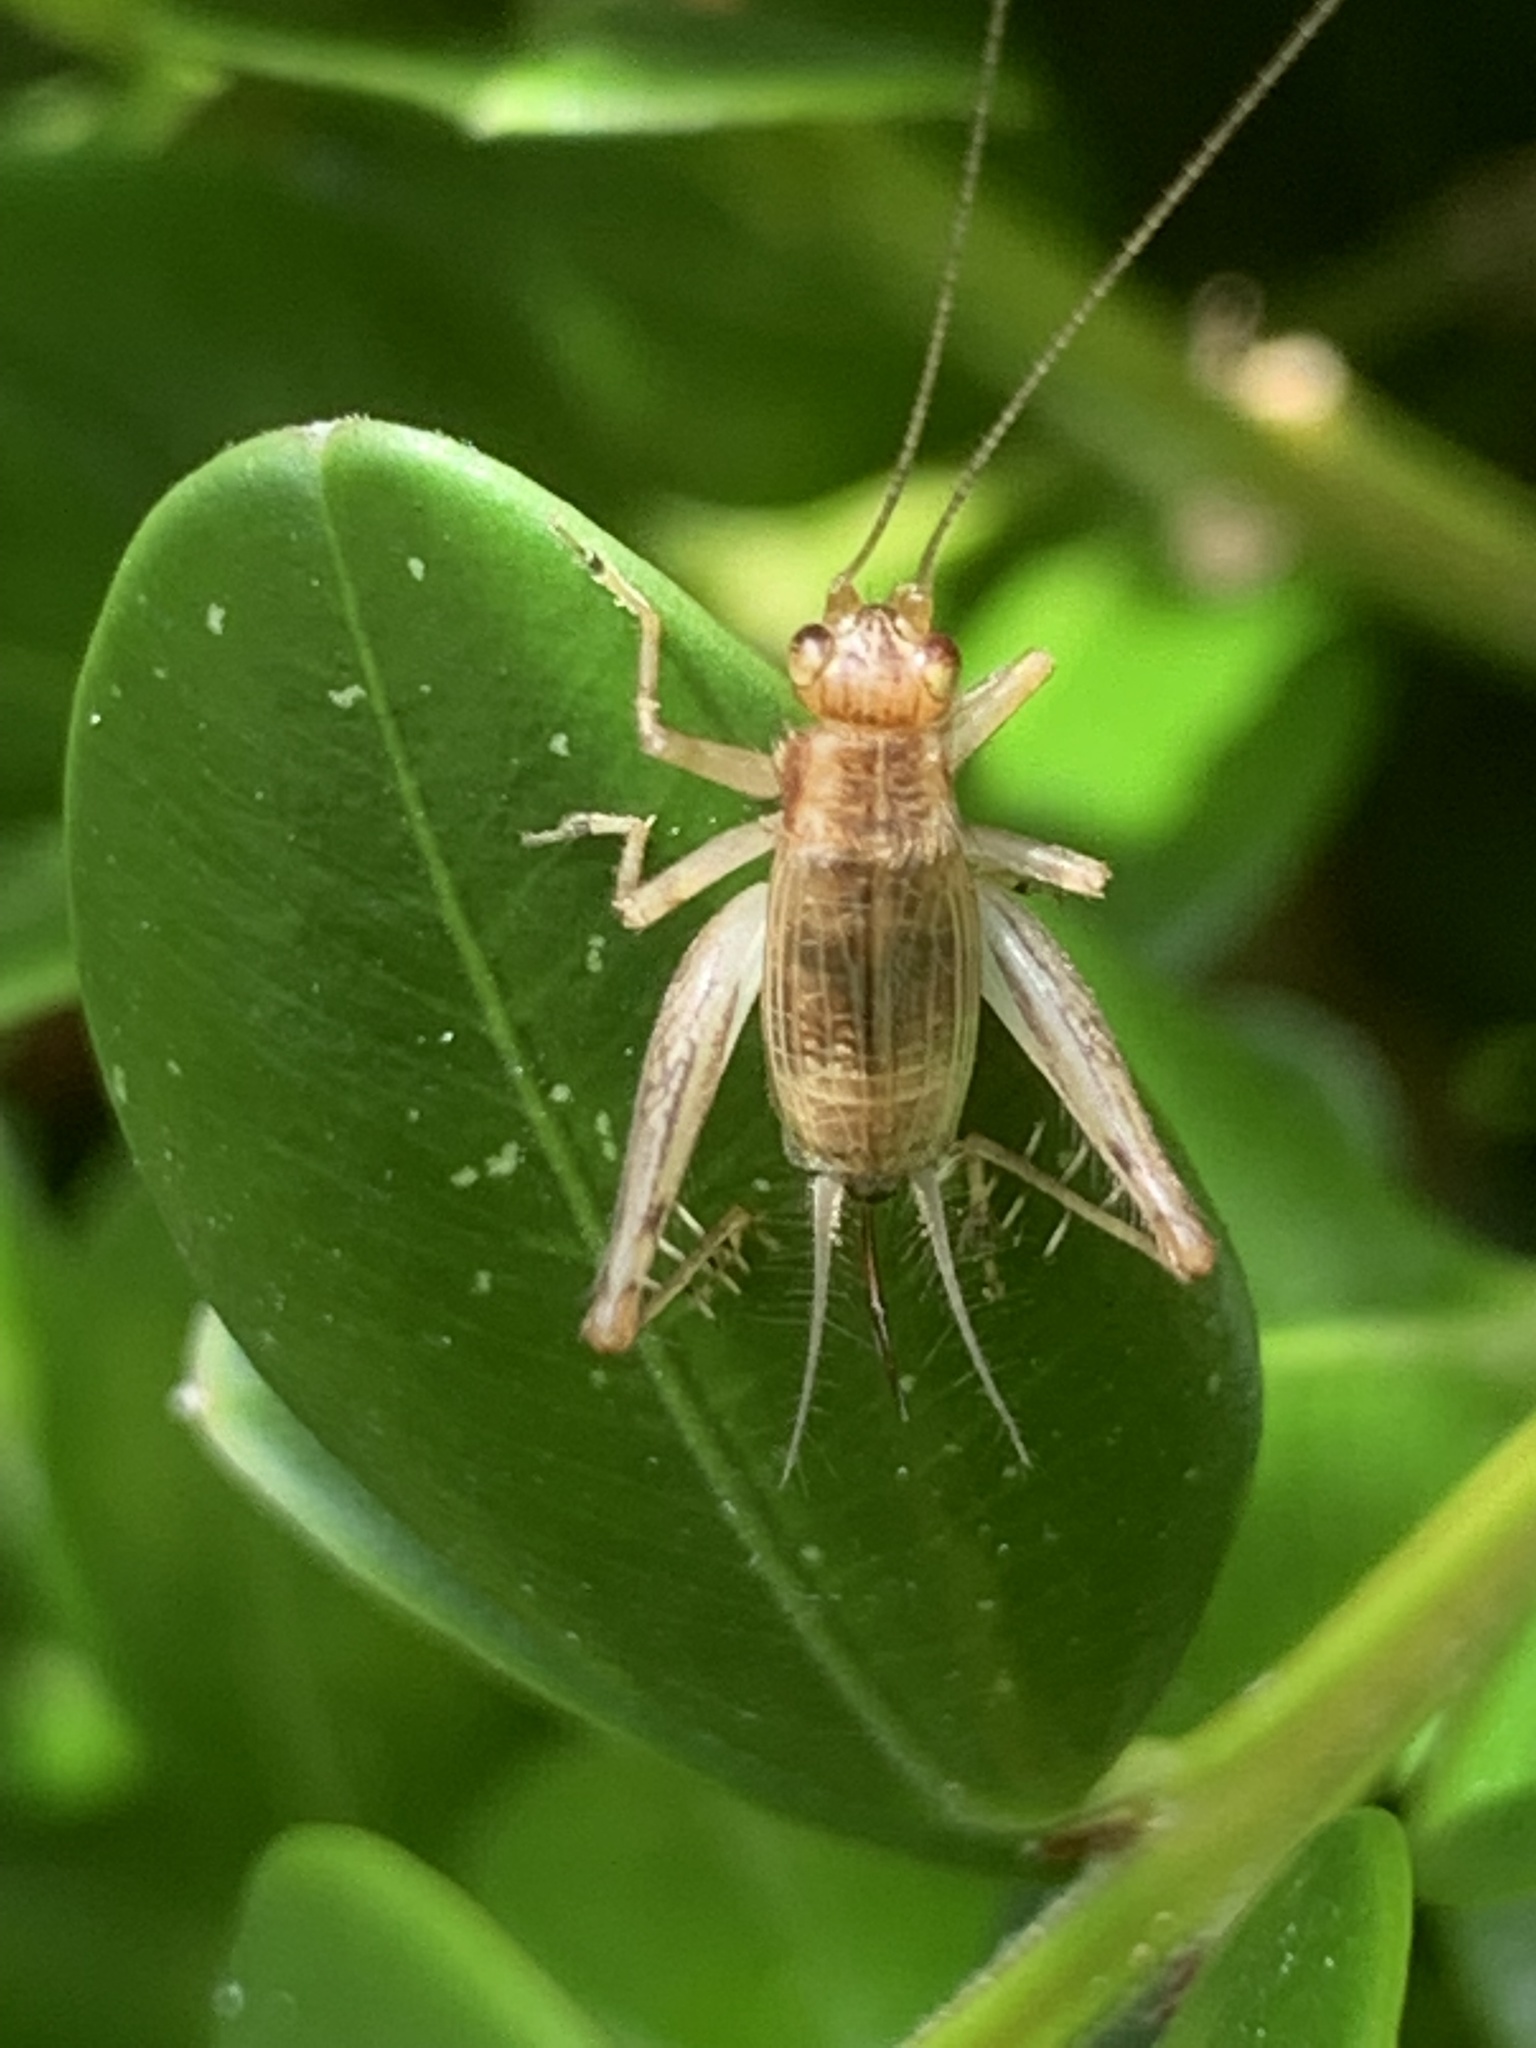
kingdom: Animalia
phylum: Arthropoda
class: Insecta
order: Orthoptera
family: Trigonidiidae
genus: Anaxipha
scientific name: Anaxipha exigua
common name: Say's bush cricket
